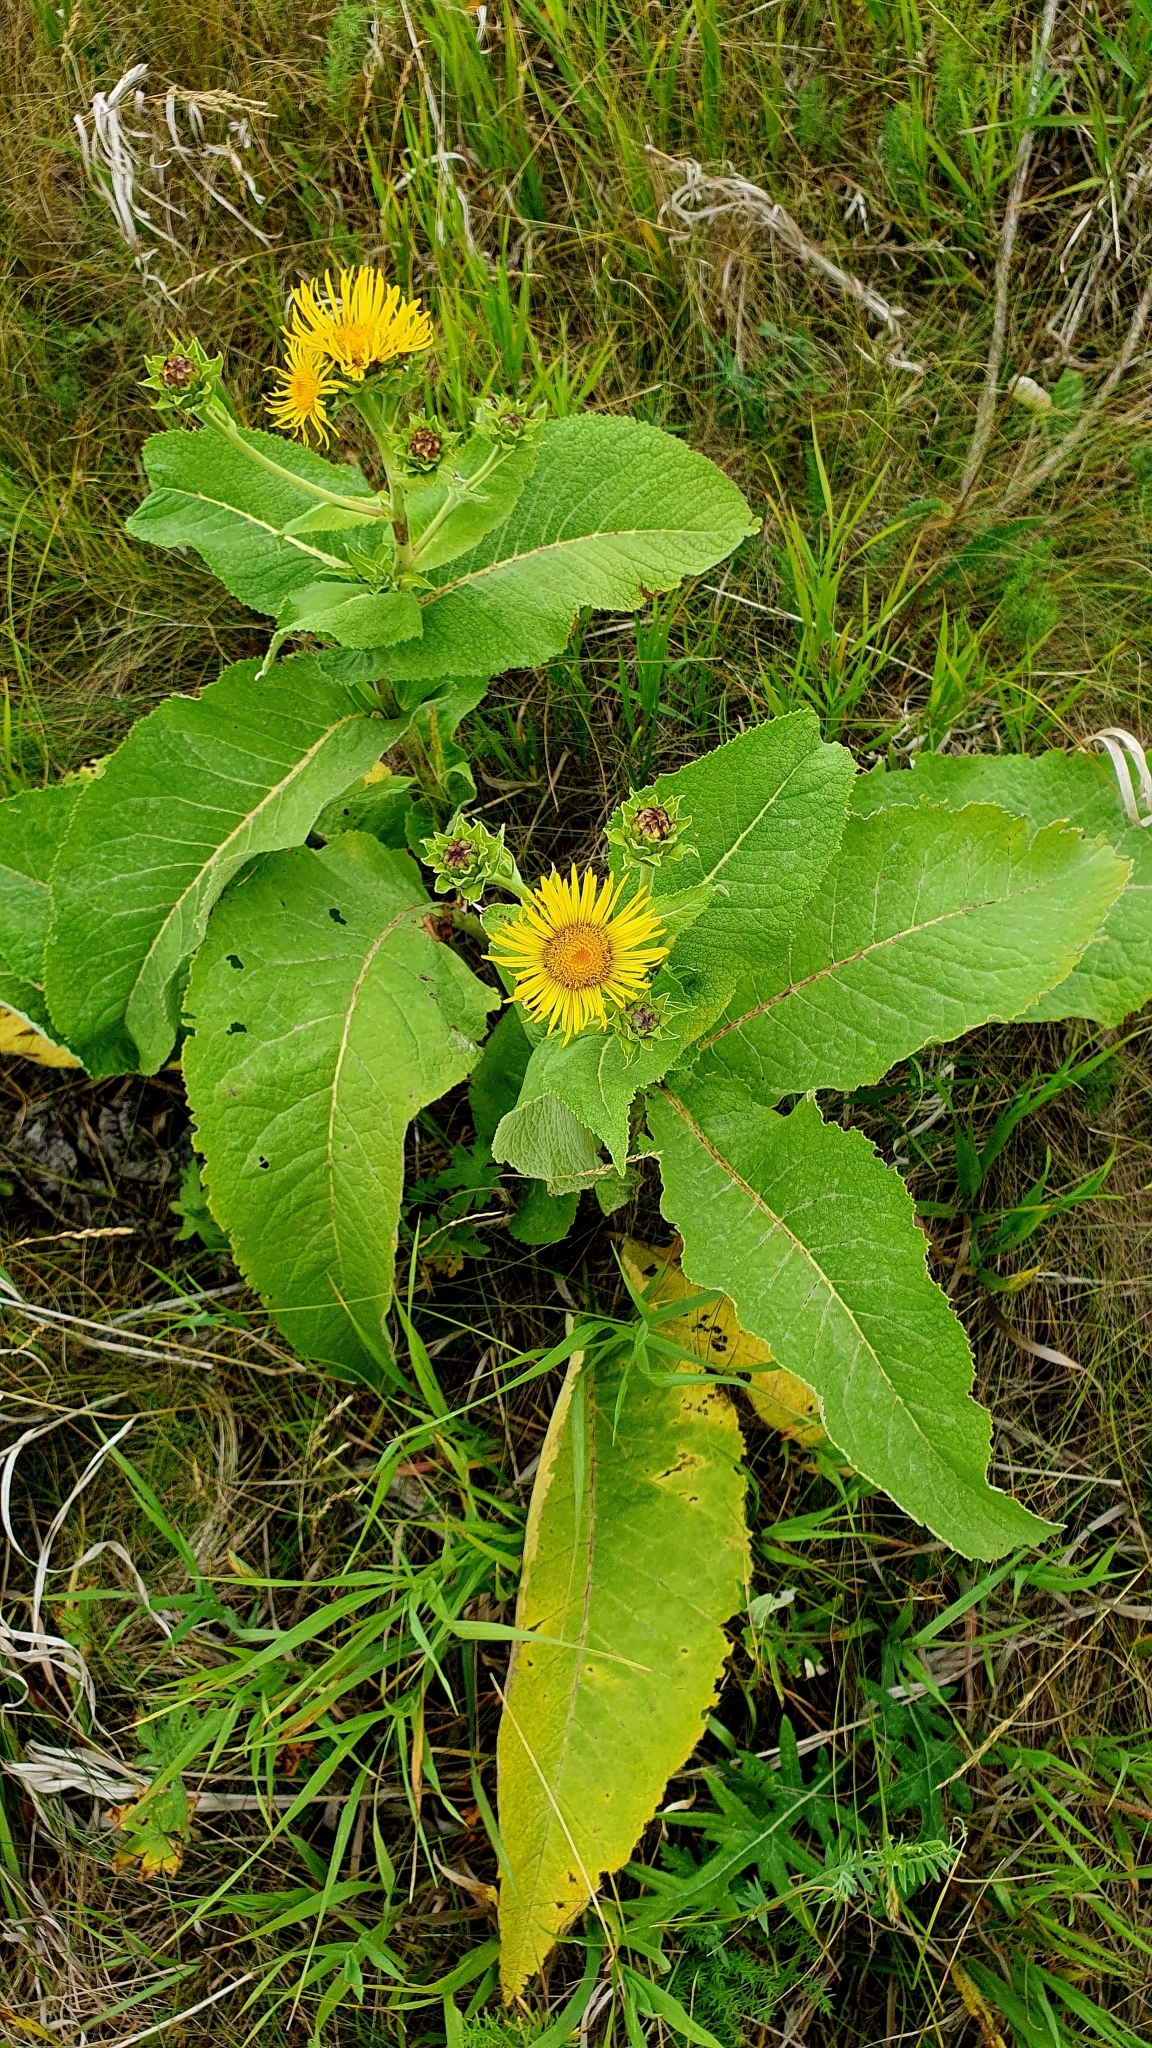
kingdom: Plantae
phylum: Tracheophyta
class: Magnoliopsida
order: Asterales
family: Asteraceae
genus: Inula
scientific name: Inula helenium
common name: Elecampane
